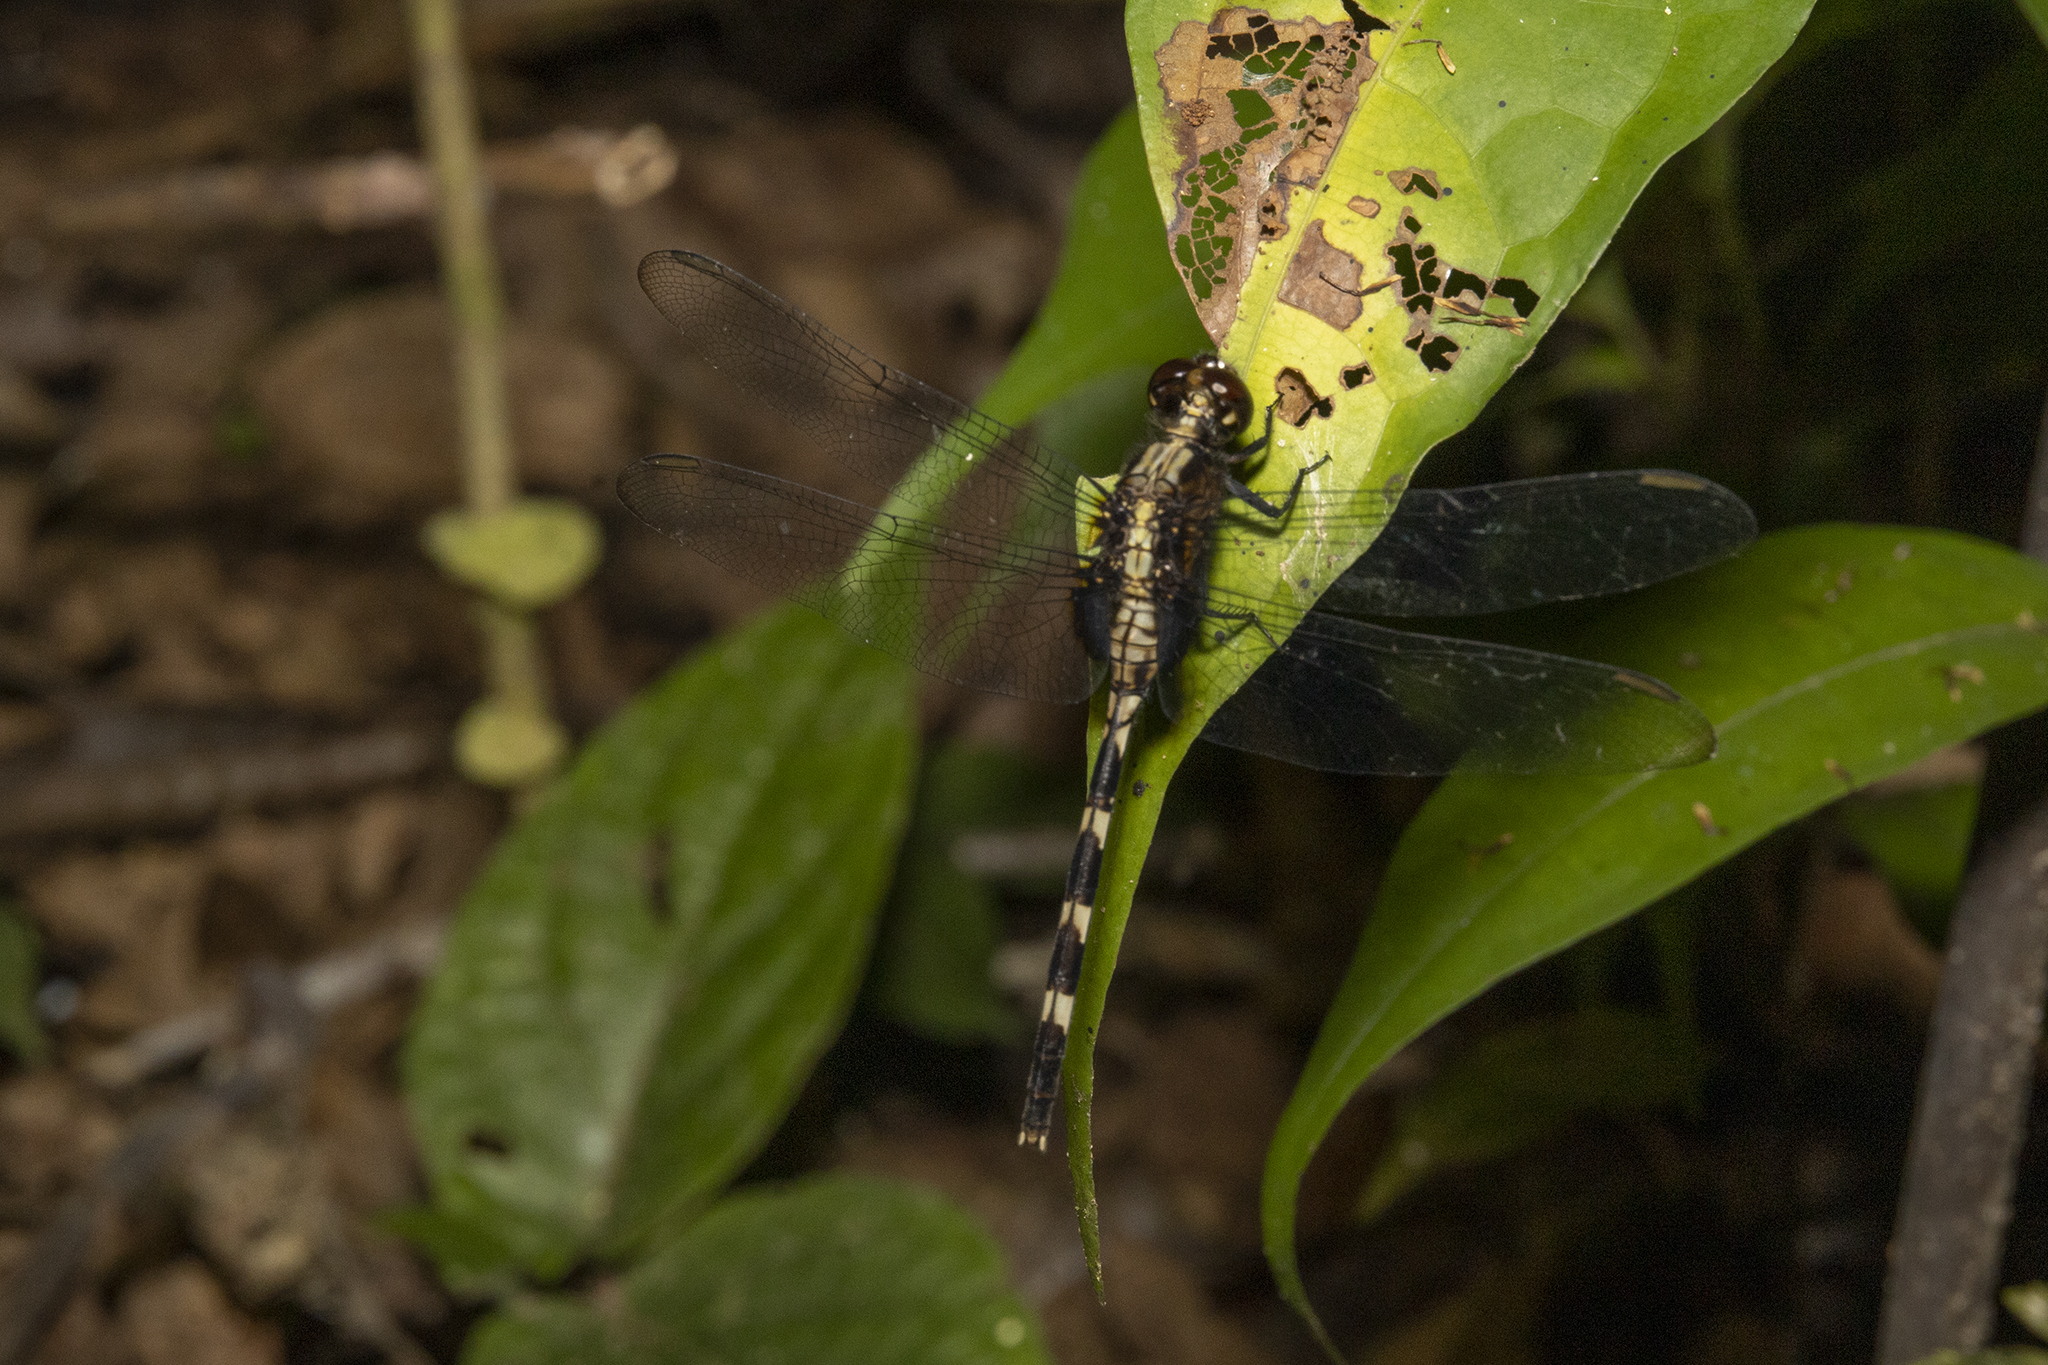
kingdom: Animalia
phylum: Arthropoda
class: Insecta
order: Odonata
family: Libellulidae
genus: Erythemis
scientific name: Erythemis plebeja
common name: Pin-tailed pondhawk
